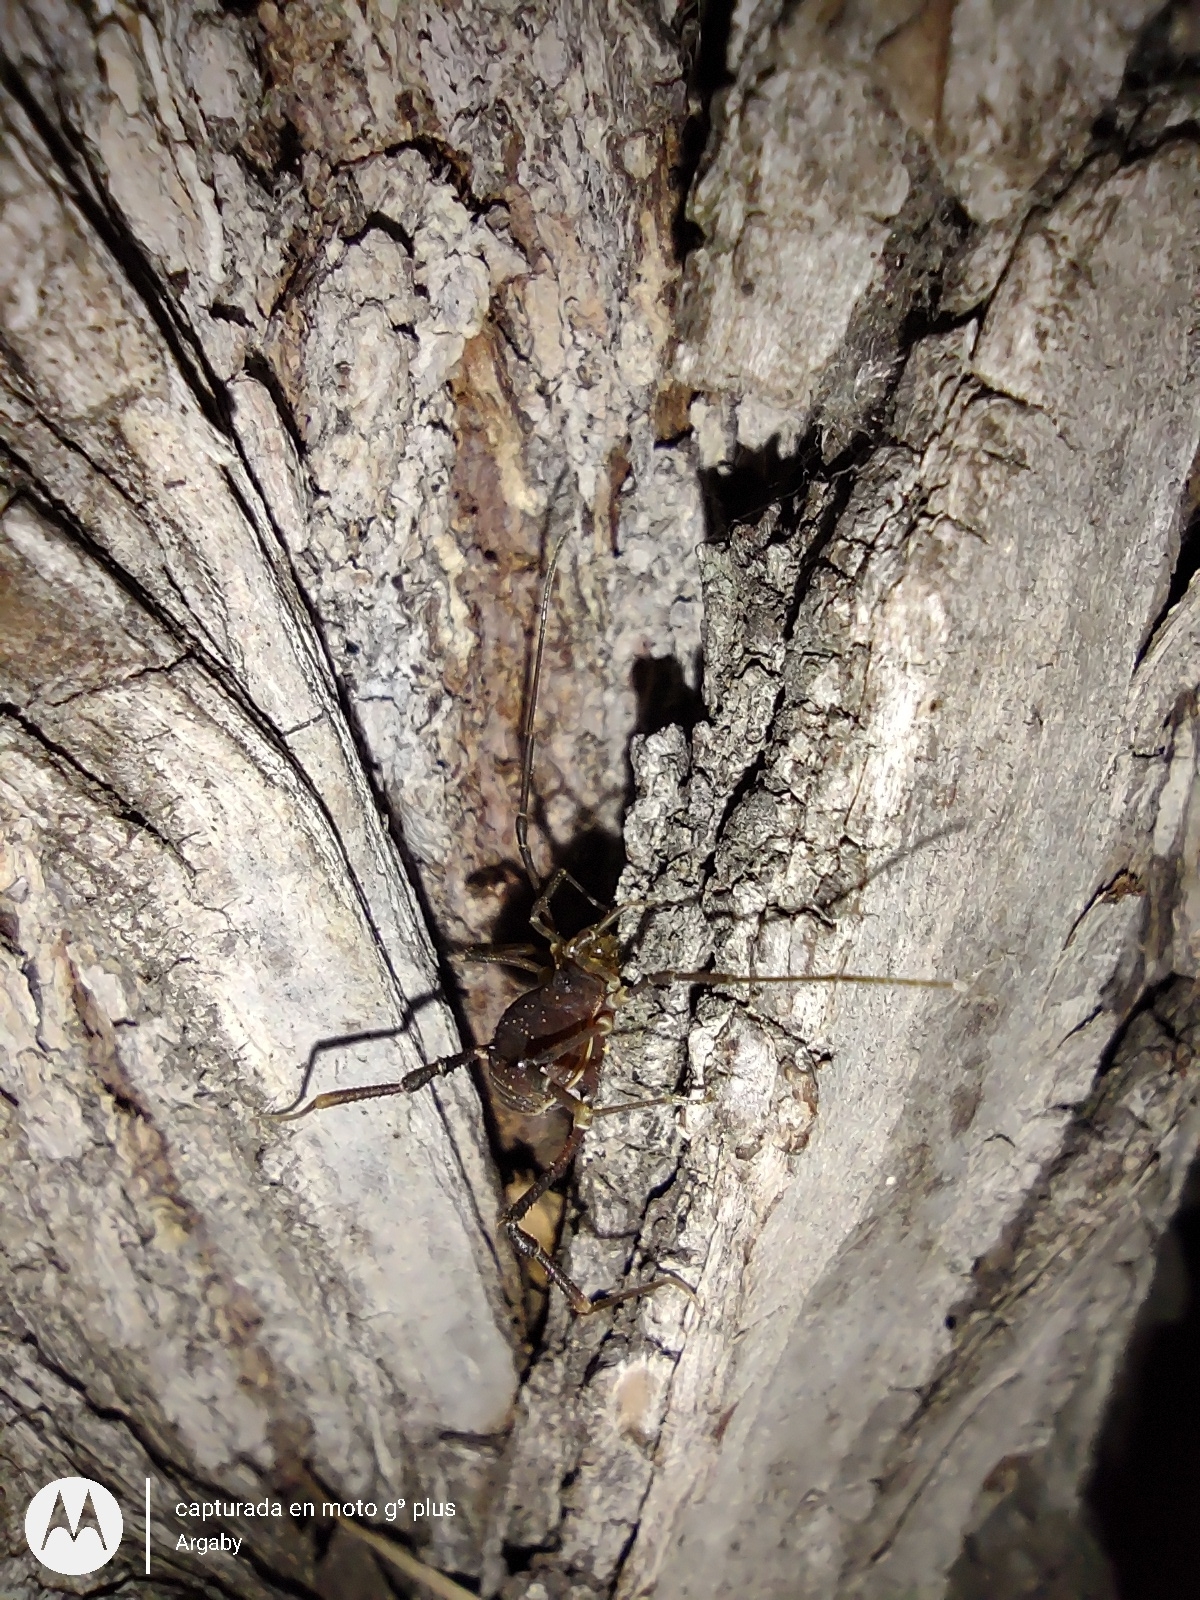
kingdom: Animalia
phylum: Arthropoda
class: Arachnida
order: Opiliones
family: Gonyleptidae
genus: Discocyrtus
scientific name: Discocyrtus testudineus
